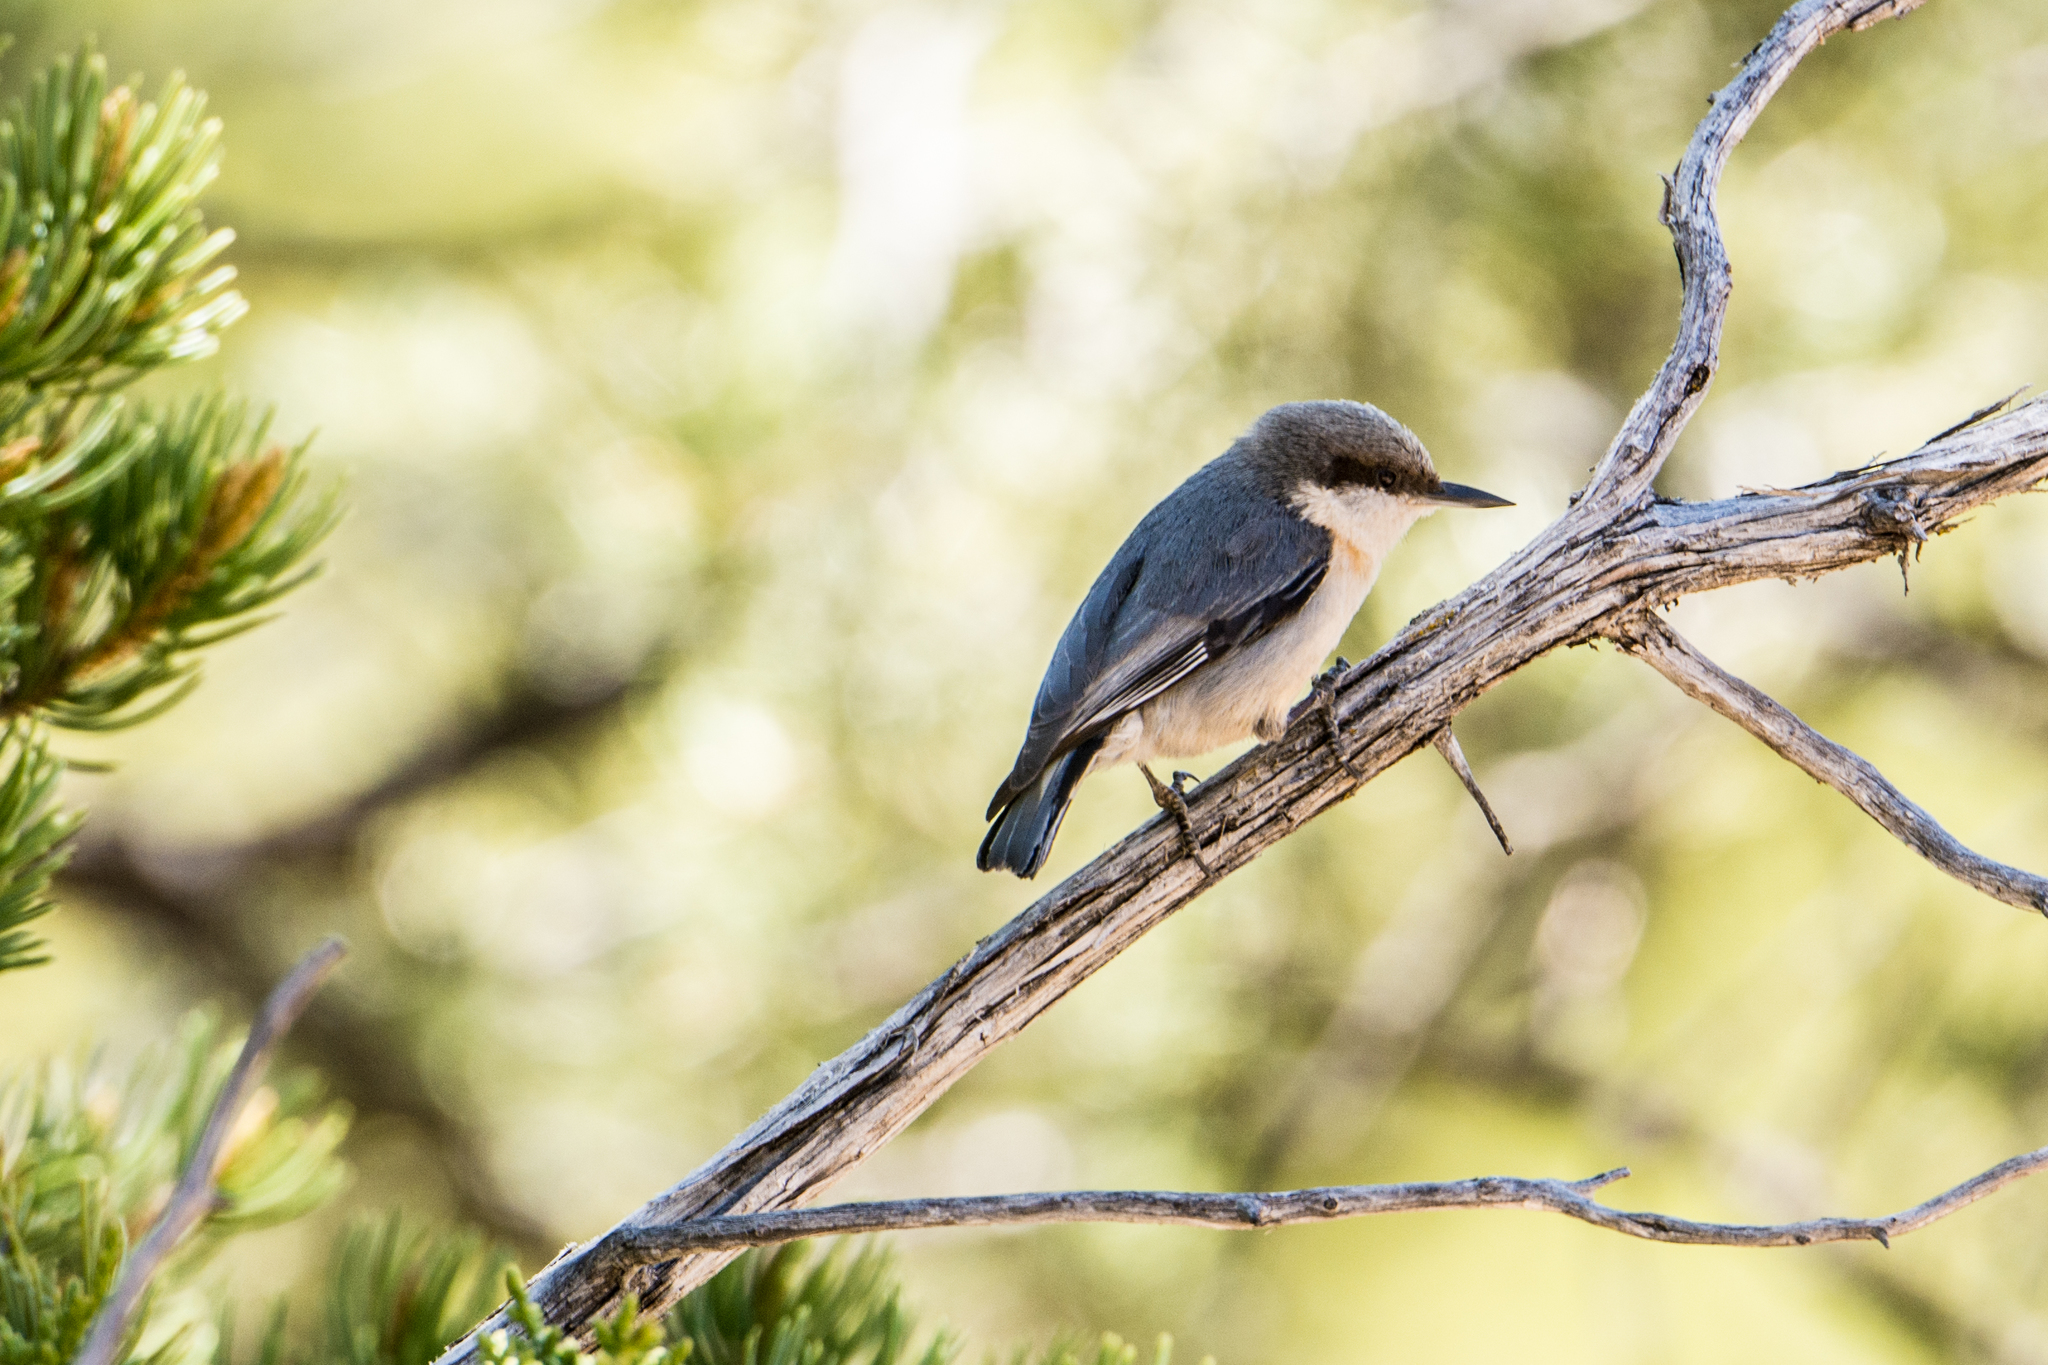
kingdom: Animalia
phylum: Chordata
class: Aves
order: Passeriformes
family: Sittidae
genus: Sitta
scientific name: Sitta pygmaea
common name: Pygmy nuthatch
